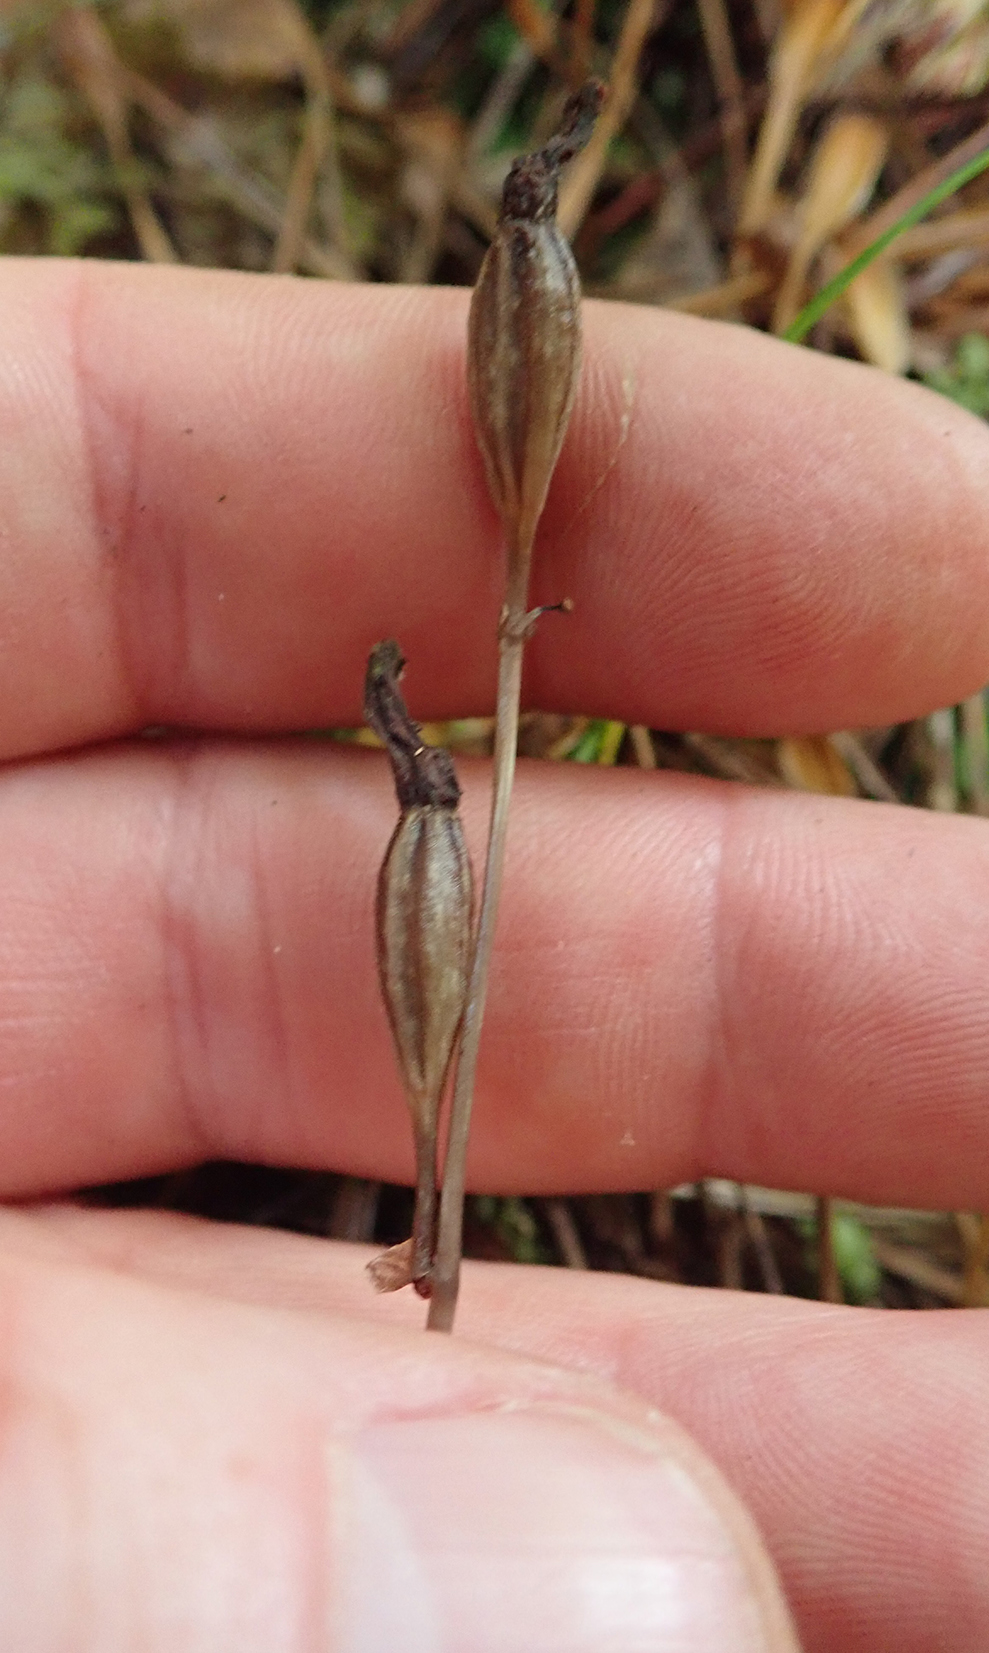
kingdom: Plantae
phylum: Tracheophyta
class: Liliopsida
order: Asparagales
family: Orchidaceae
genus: Gastrodia
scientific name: Gastrodia minor
